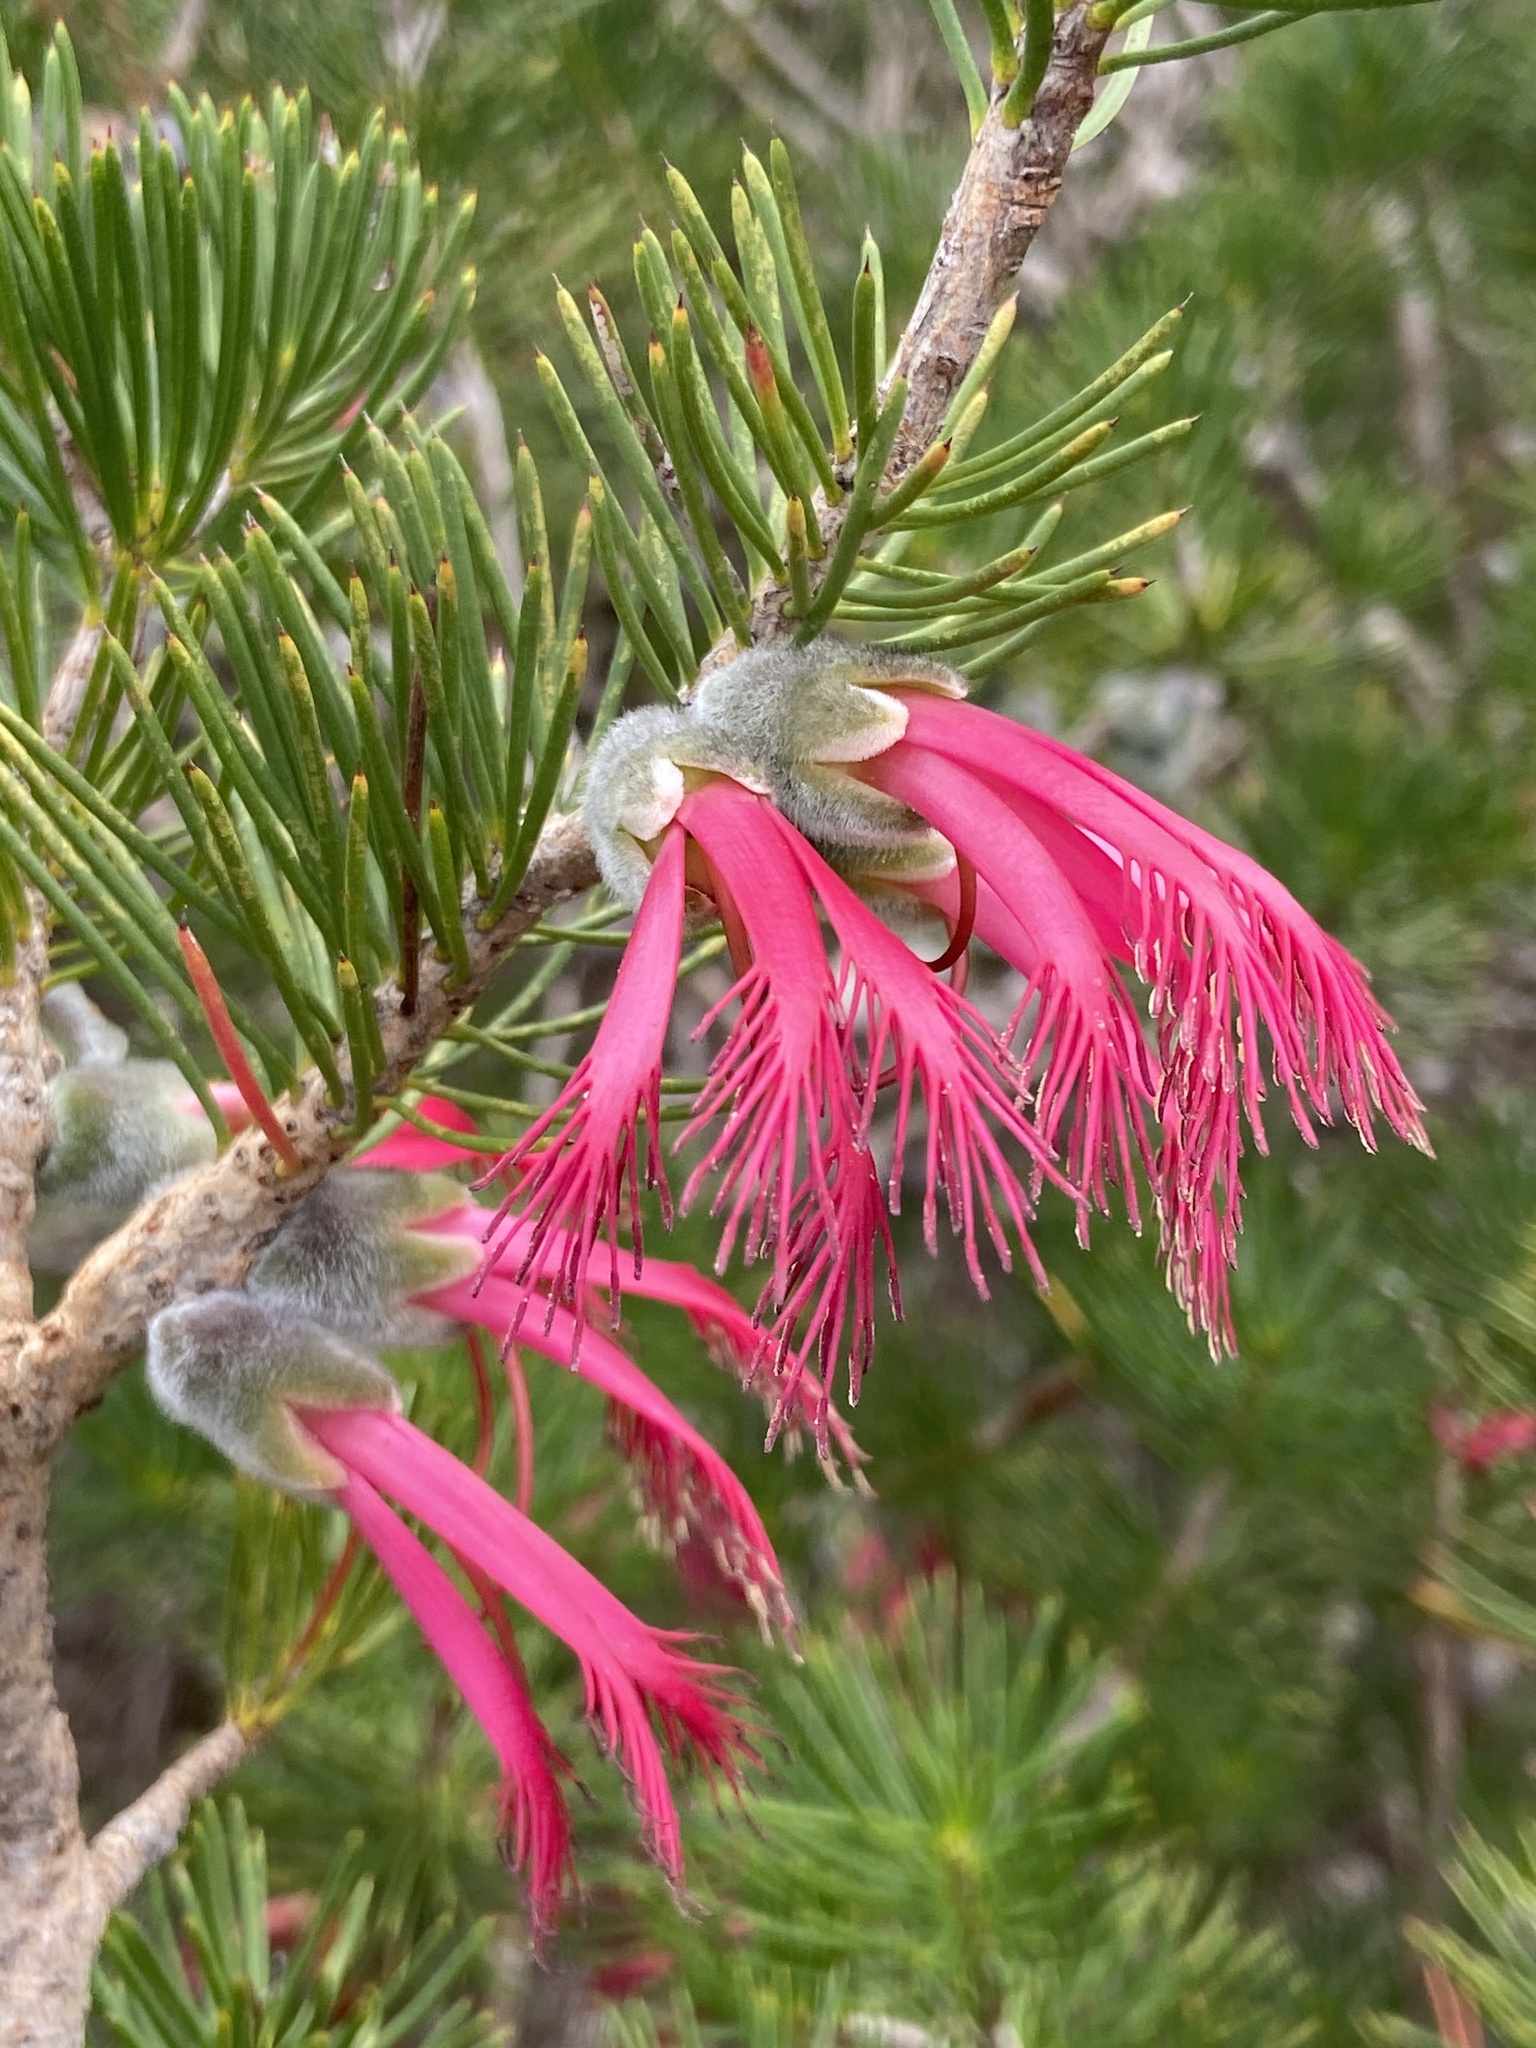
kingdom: Plantae
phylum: Tracheophyta
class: Magnoliopsida
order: Myrtales
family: Myrtaceae
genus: Melaleuca
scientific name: Melaleuca quadrifida
